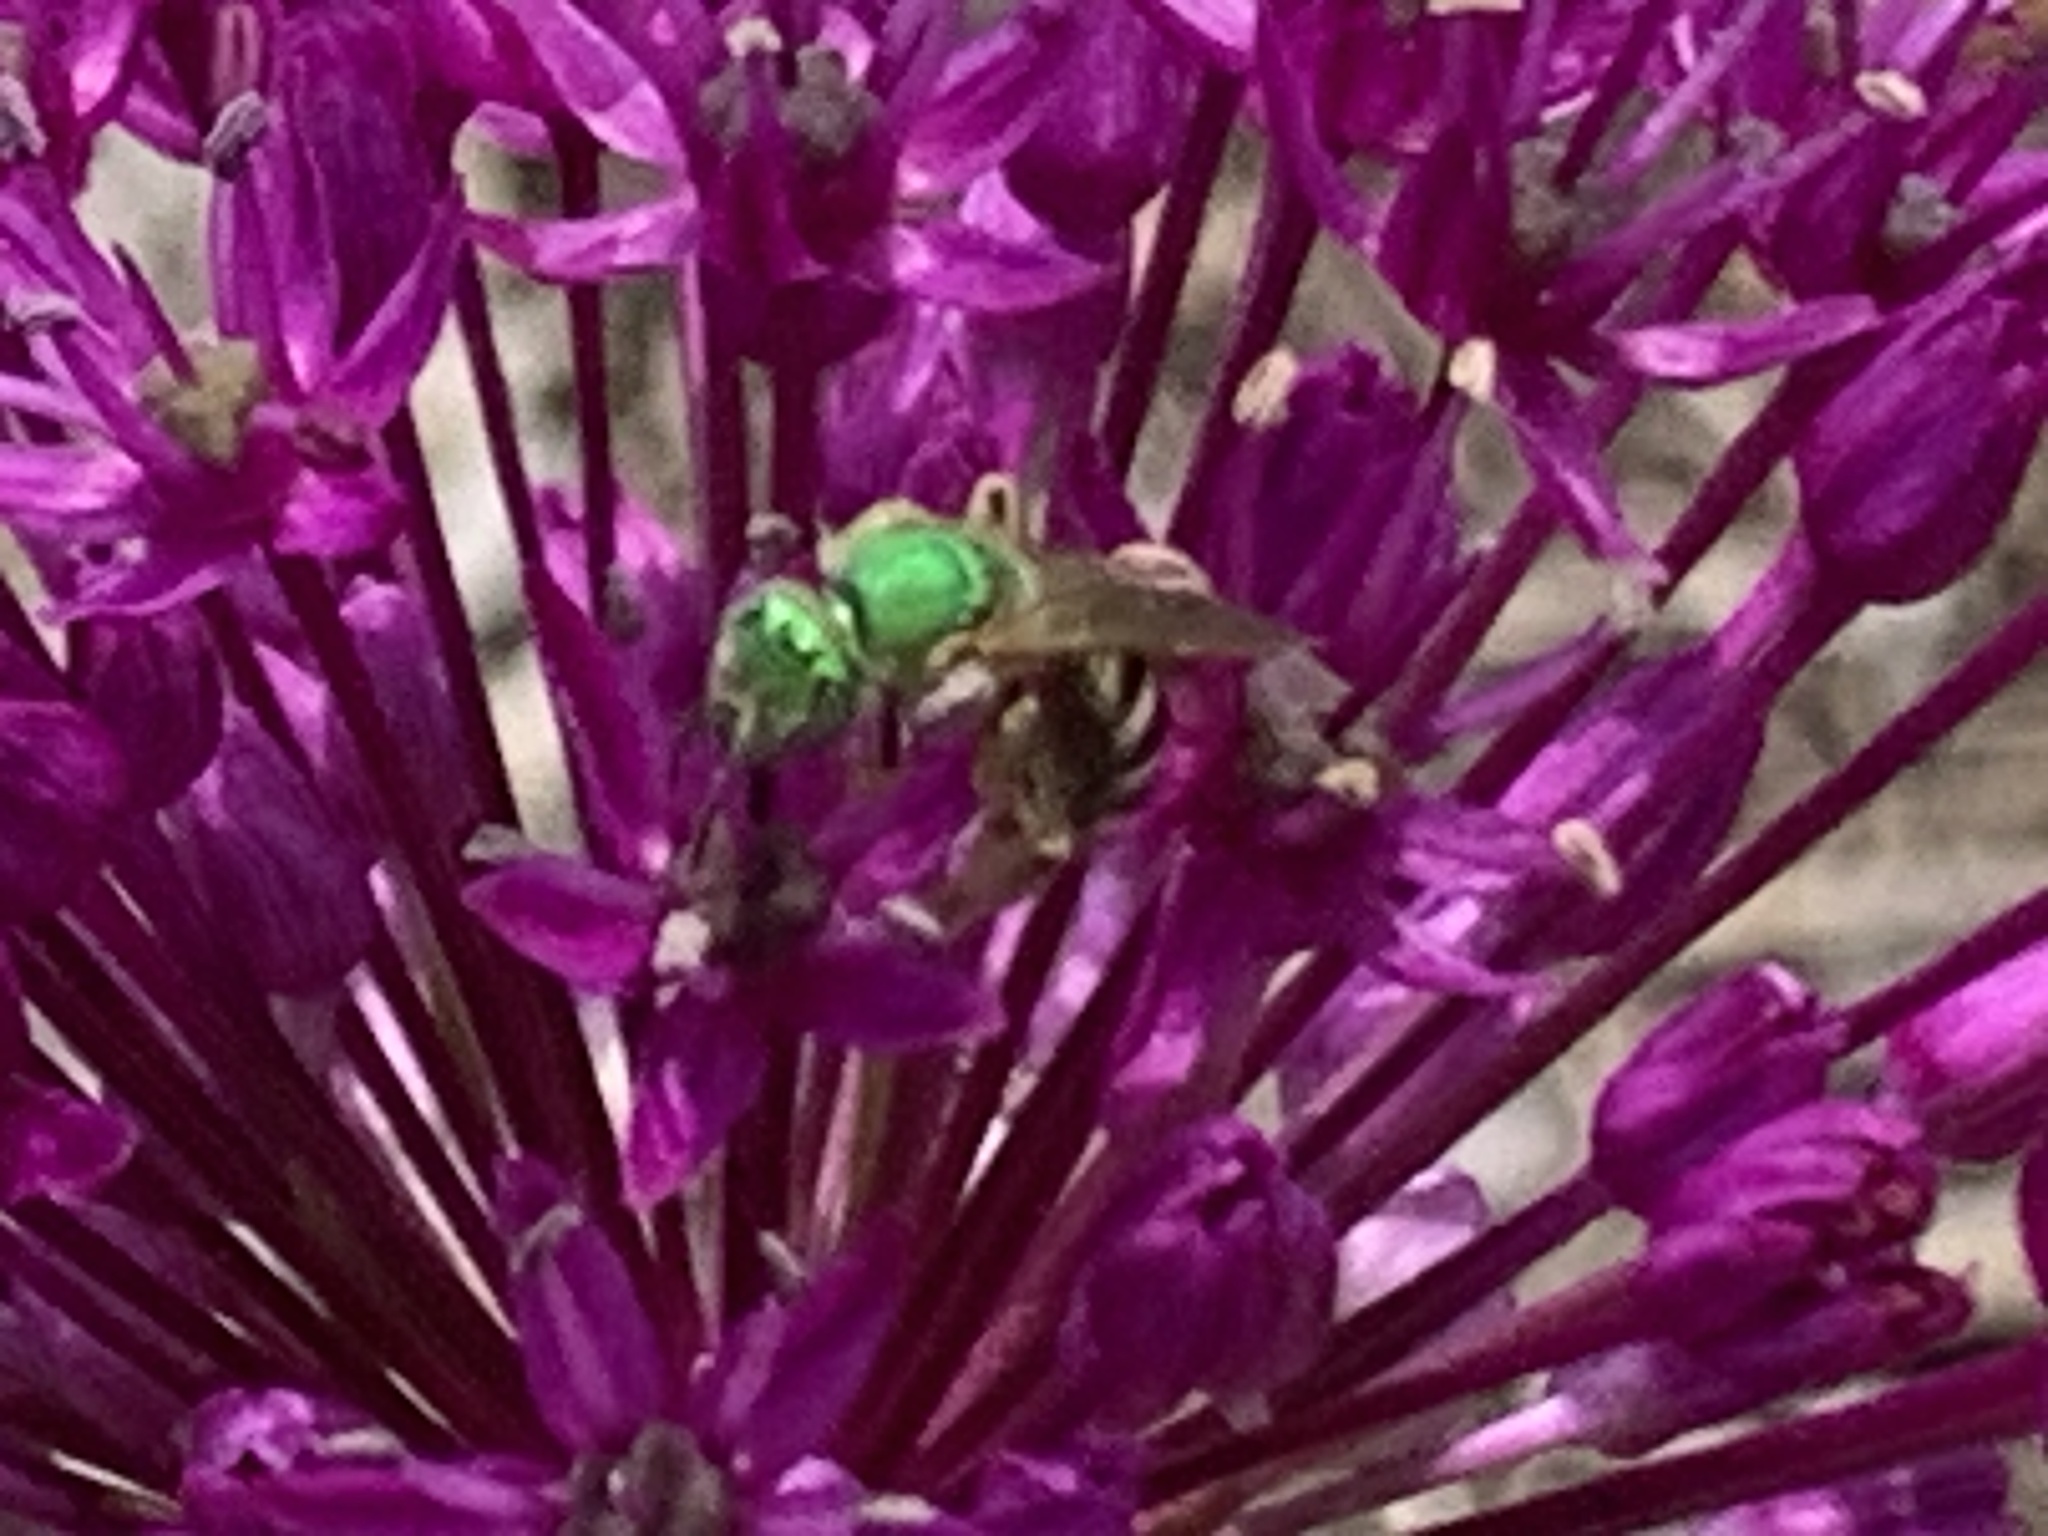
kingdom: Animalia
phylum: Arthropoda
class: Insecta
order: Hymenoptera
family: Halictidae
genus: Agapostemon
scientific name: Agapostemon virescens
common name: Bicolored striped sweat bee
